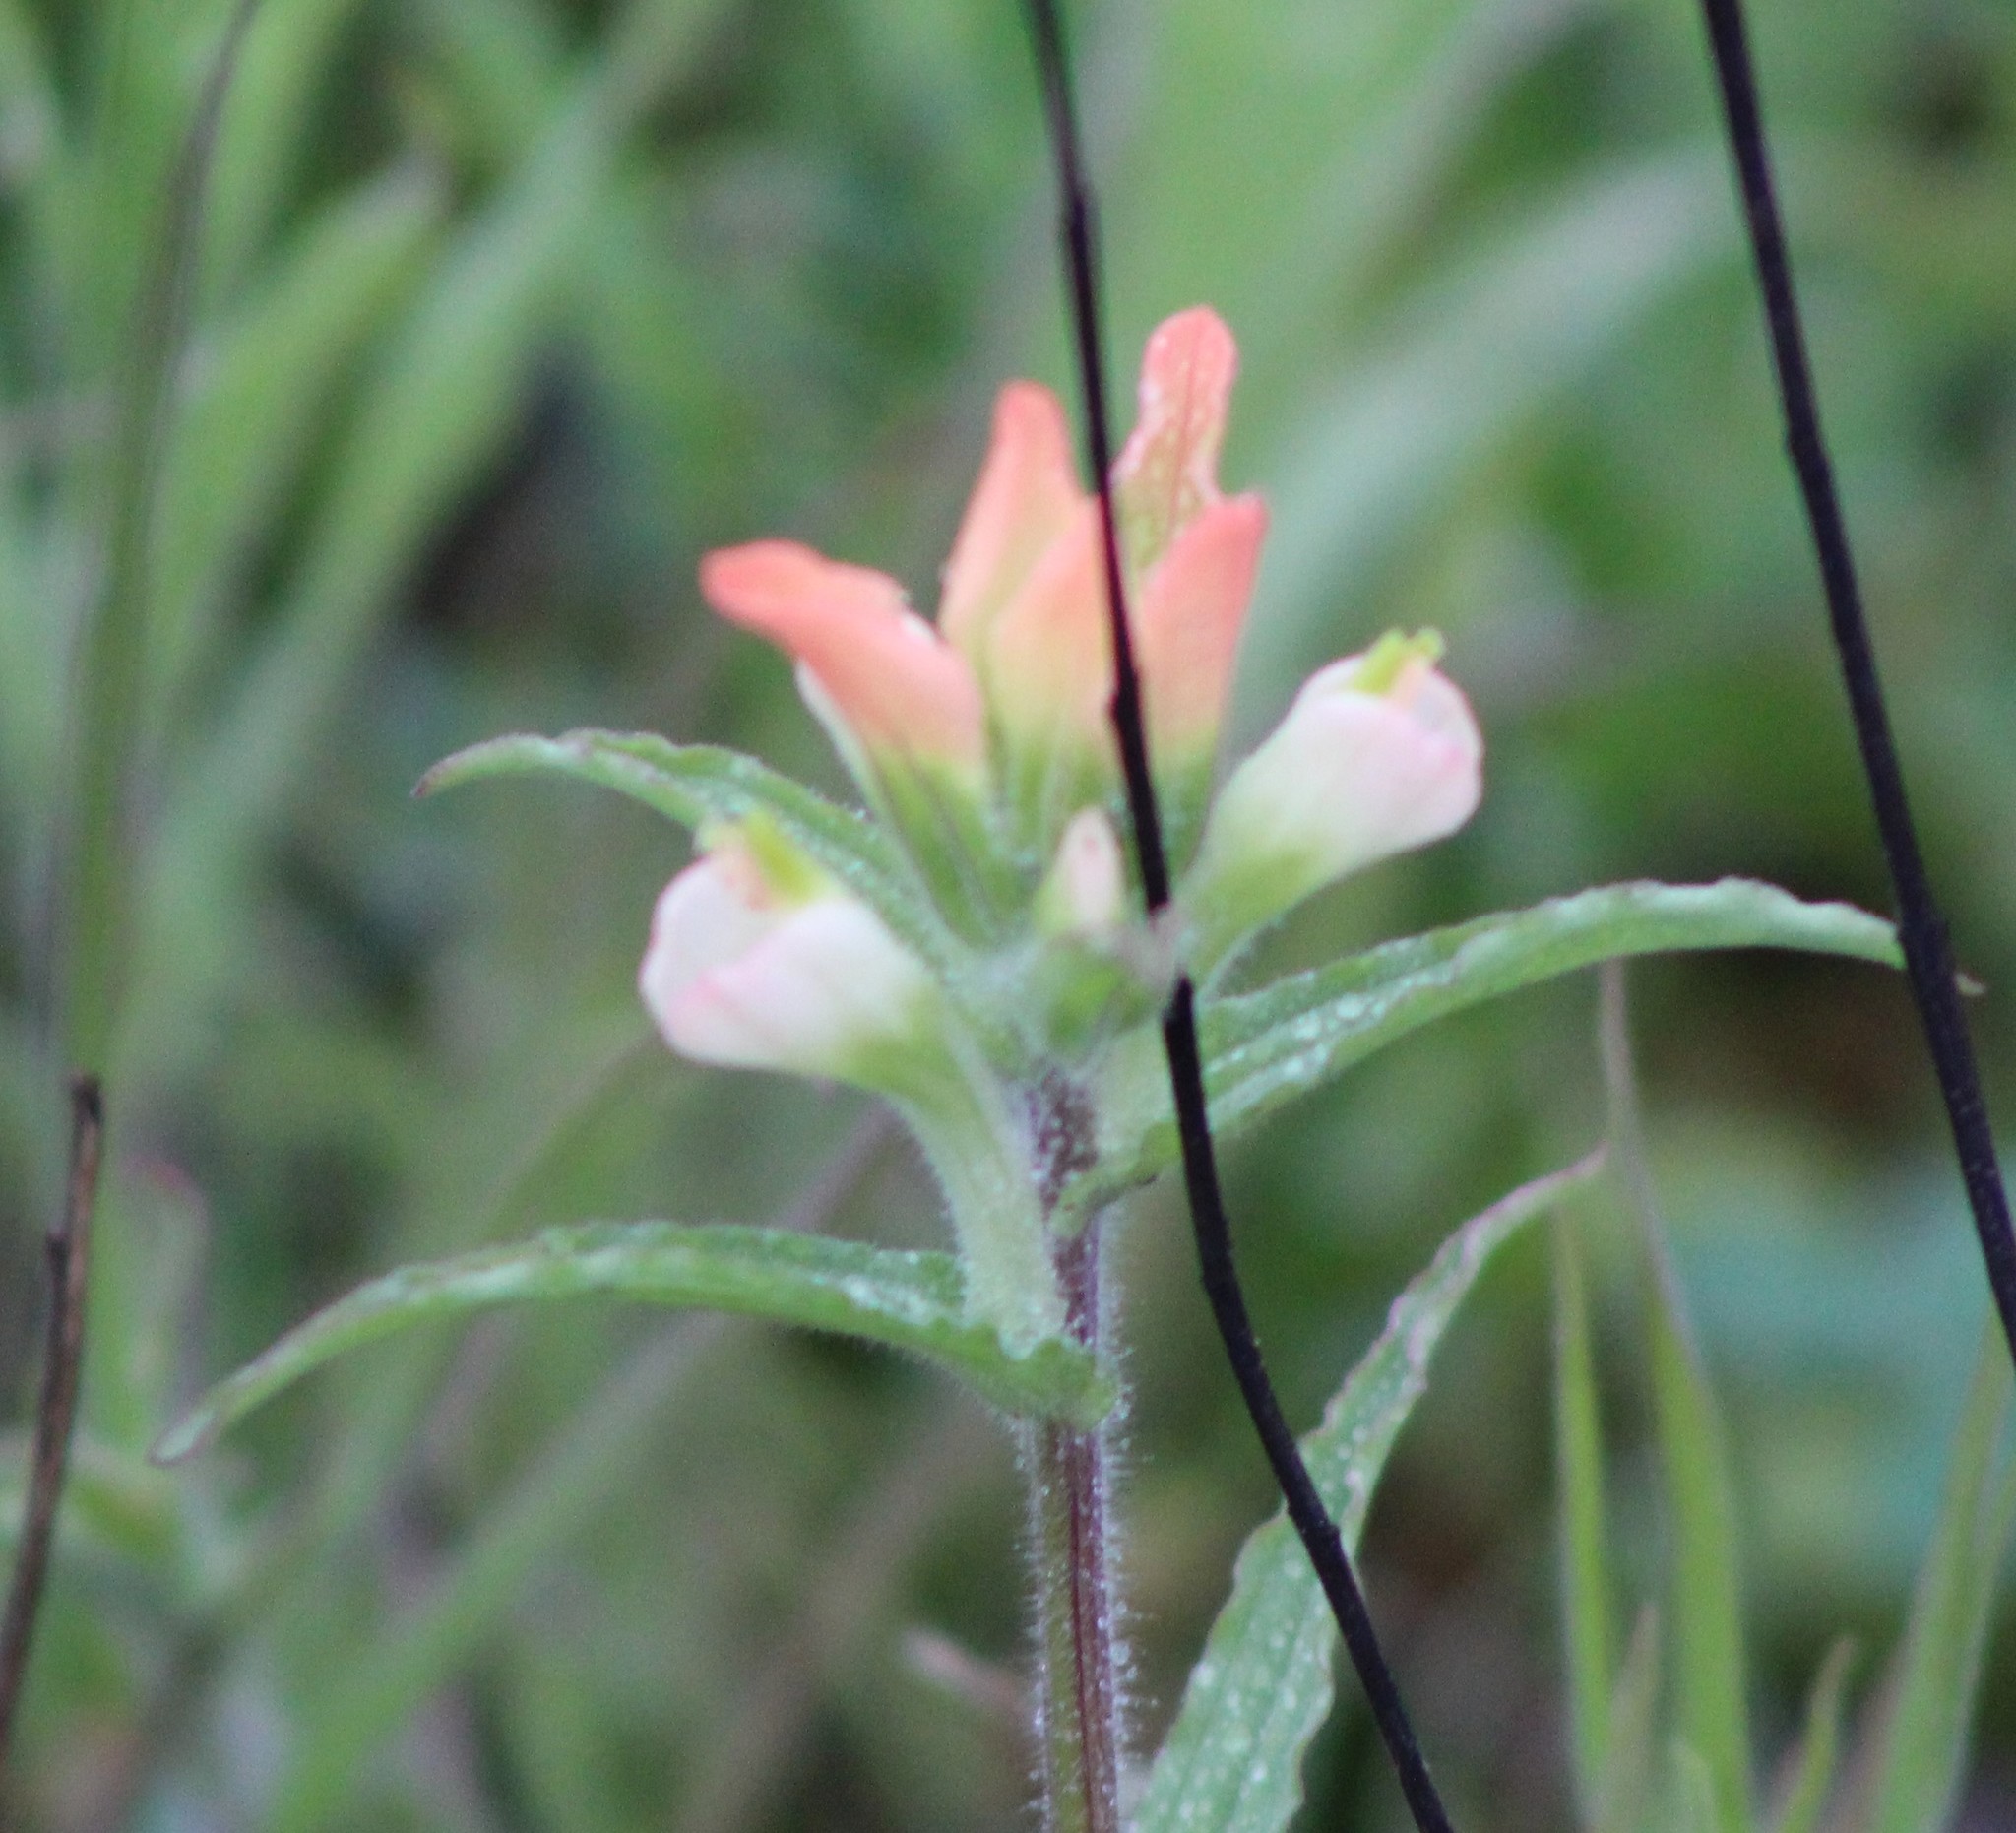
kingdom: Plantae
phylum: Tracheophyta
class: Magnoliopsida
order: Lamiales
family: Orobanchaceae
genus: Castilleja
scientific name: Castilleja indivisa
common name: Texas paintbrush
